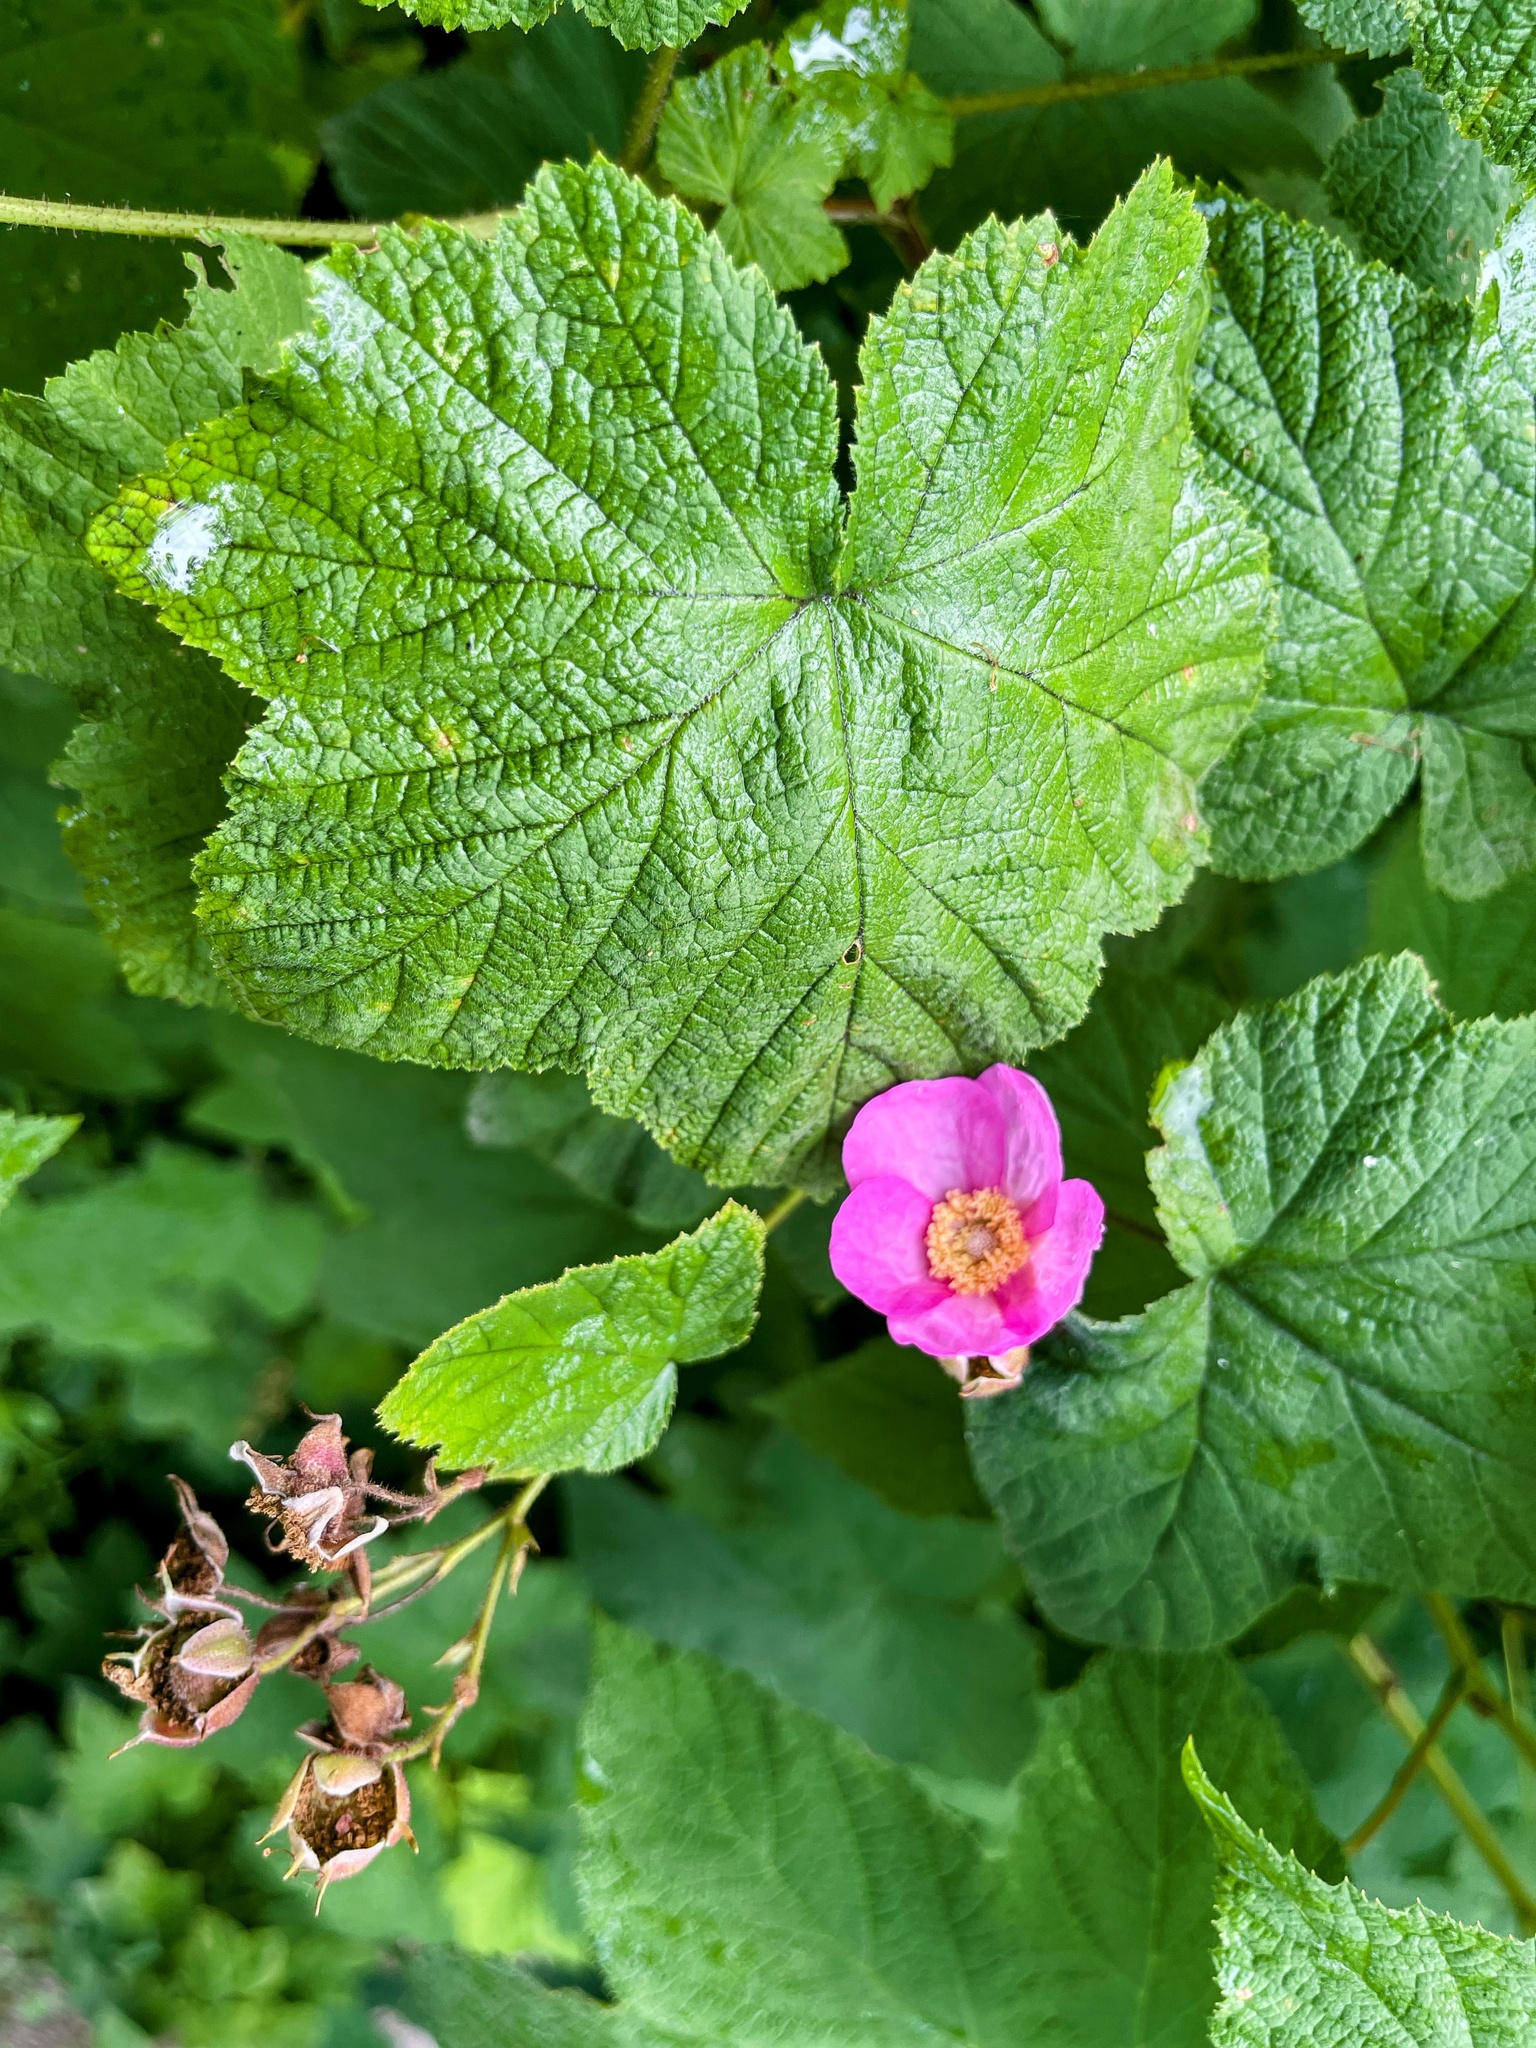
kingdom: Plantae
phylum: Tracheophyta
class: Magnoliopsida
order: Rosales
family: Rosaceae
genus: Rubus
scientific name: Rubus odoratus
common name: Purple-flowered raspberry
